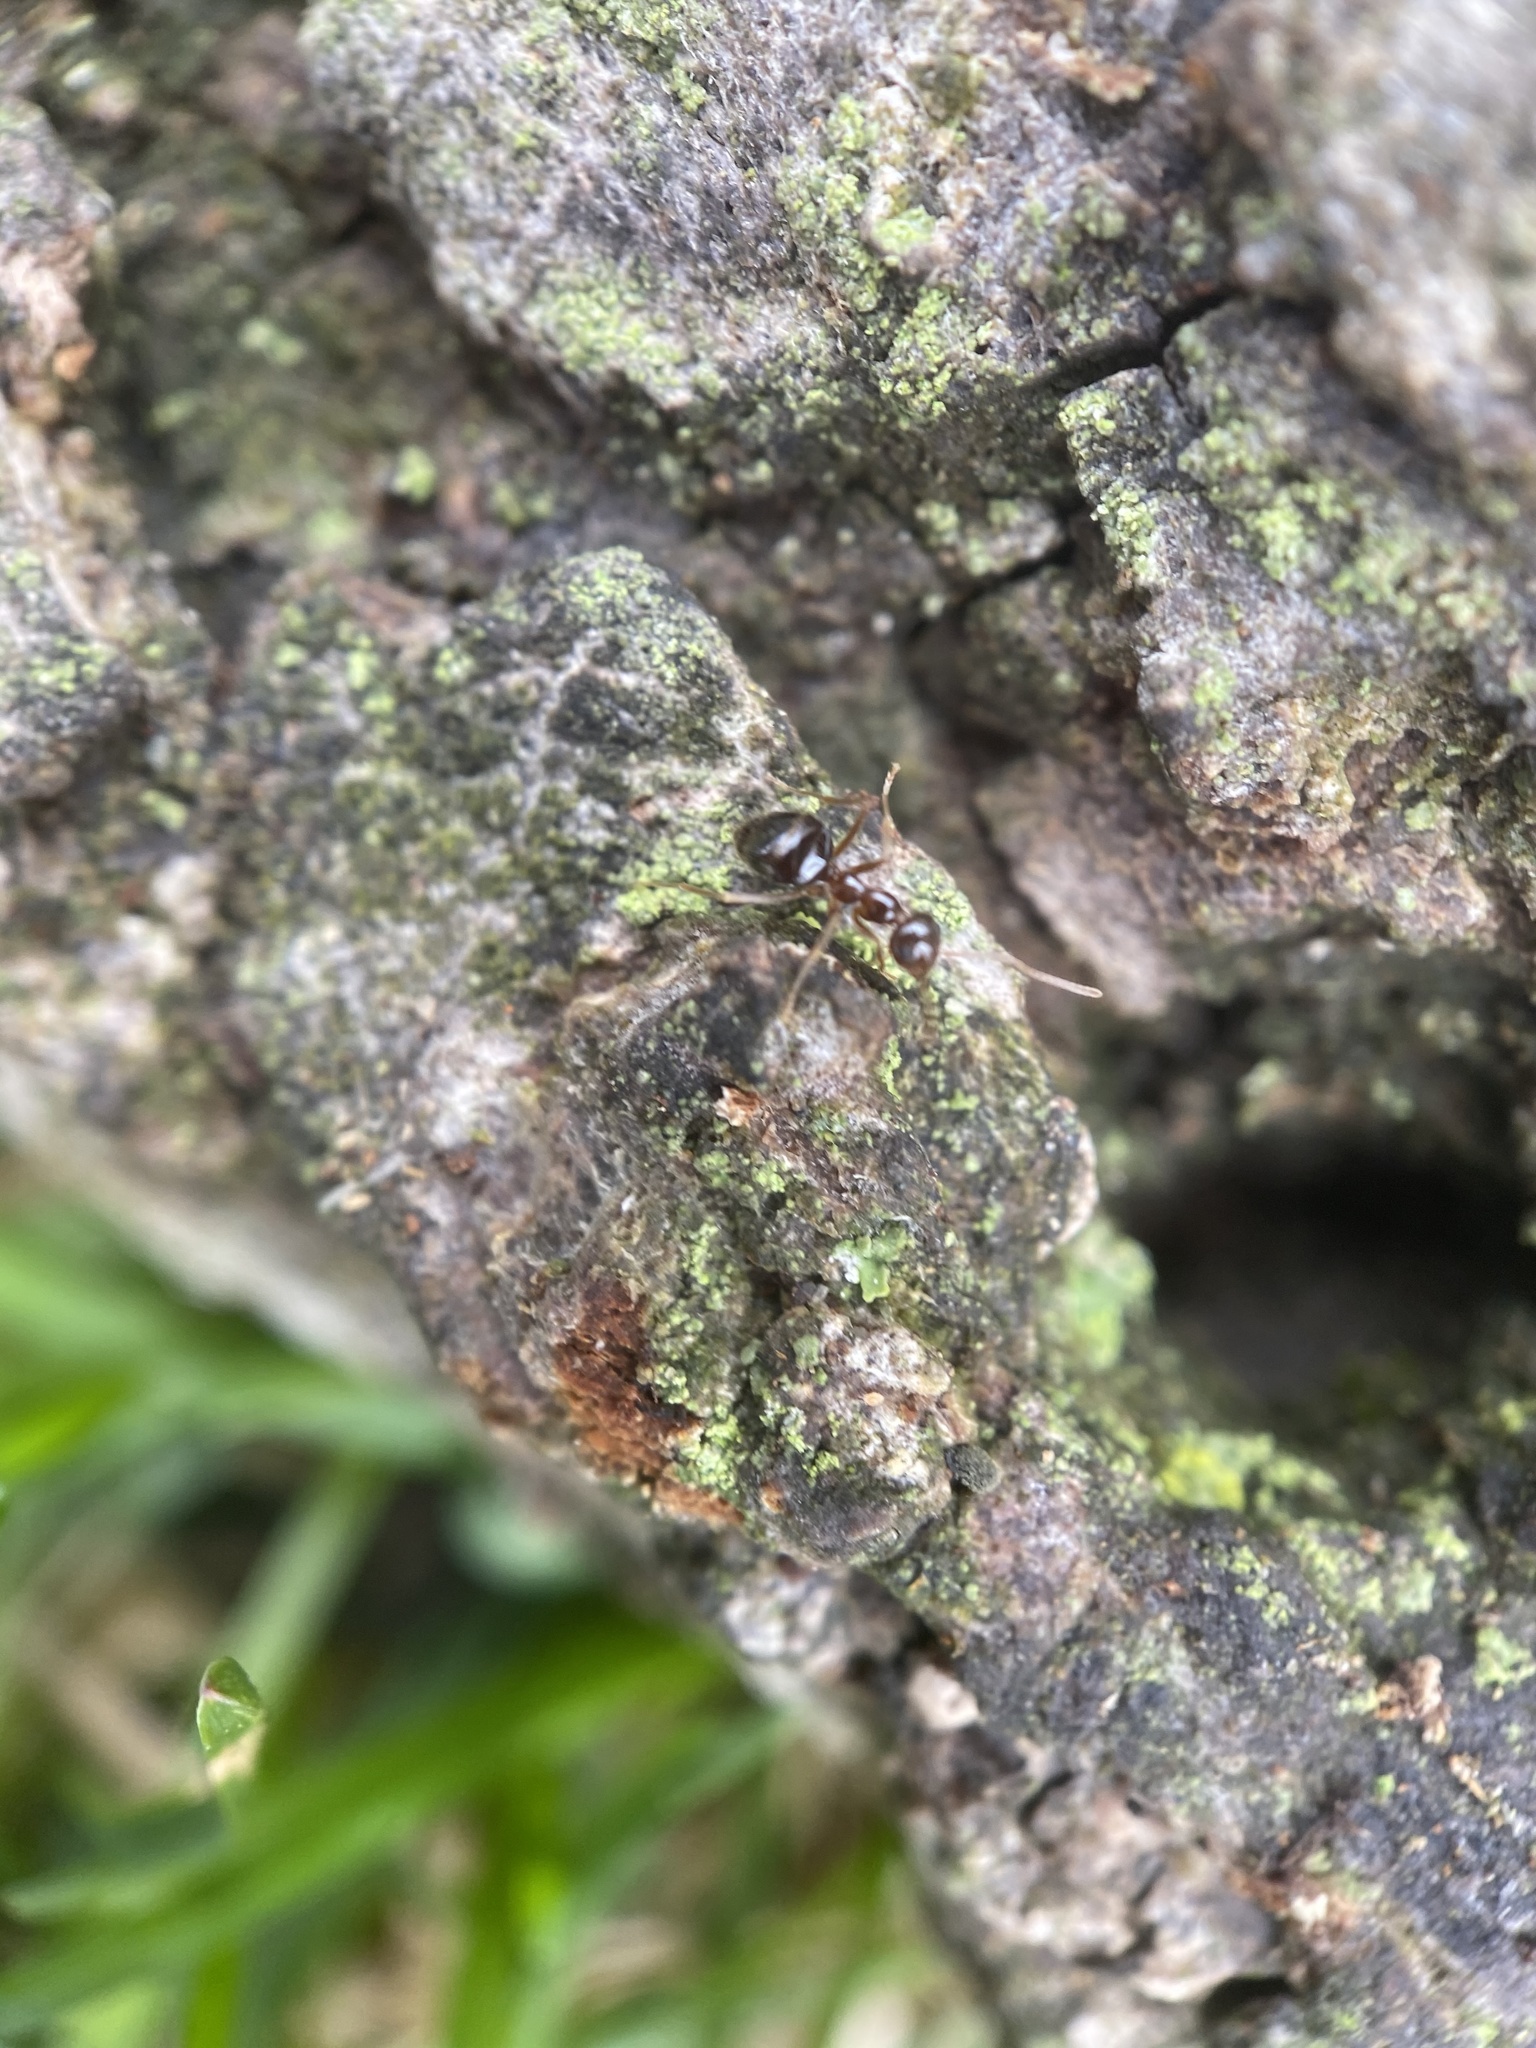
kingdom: Animalia
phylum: Arthropoda
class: Insecta
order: Hymenoptera
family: Formicidae
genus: Prenolepis
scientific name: Prenolepis imparis
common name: Small honey ant
